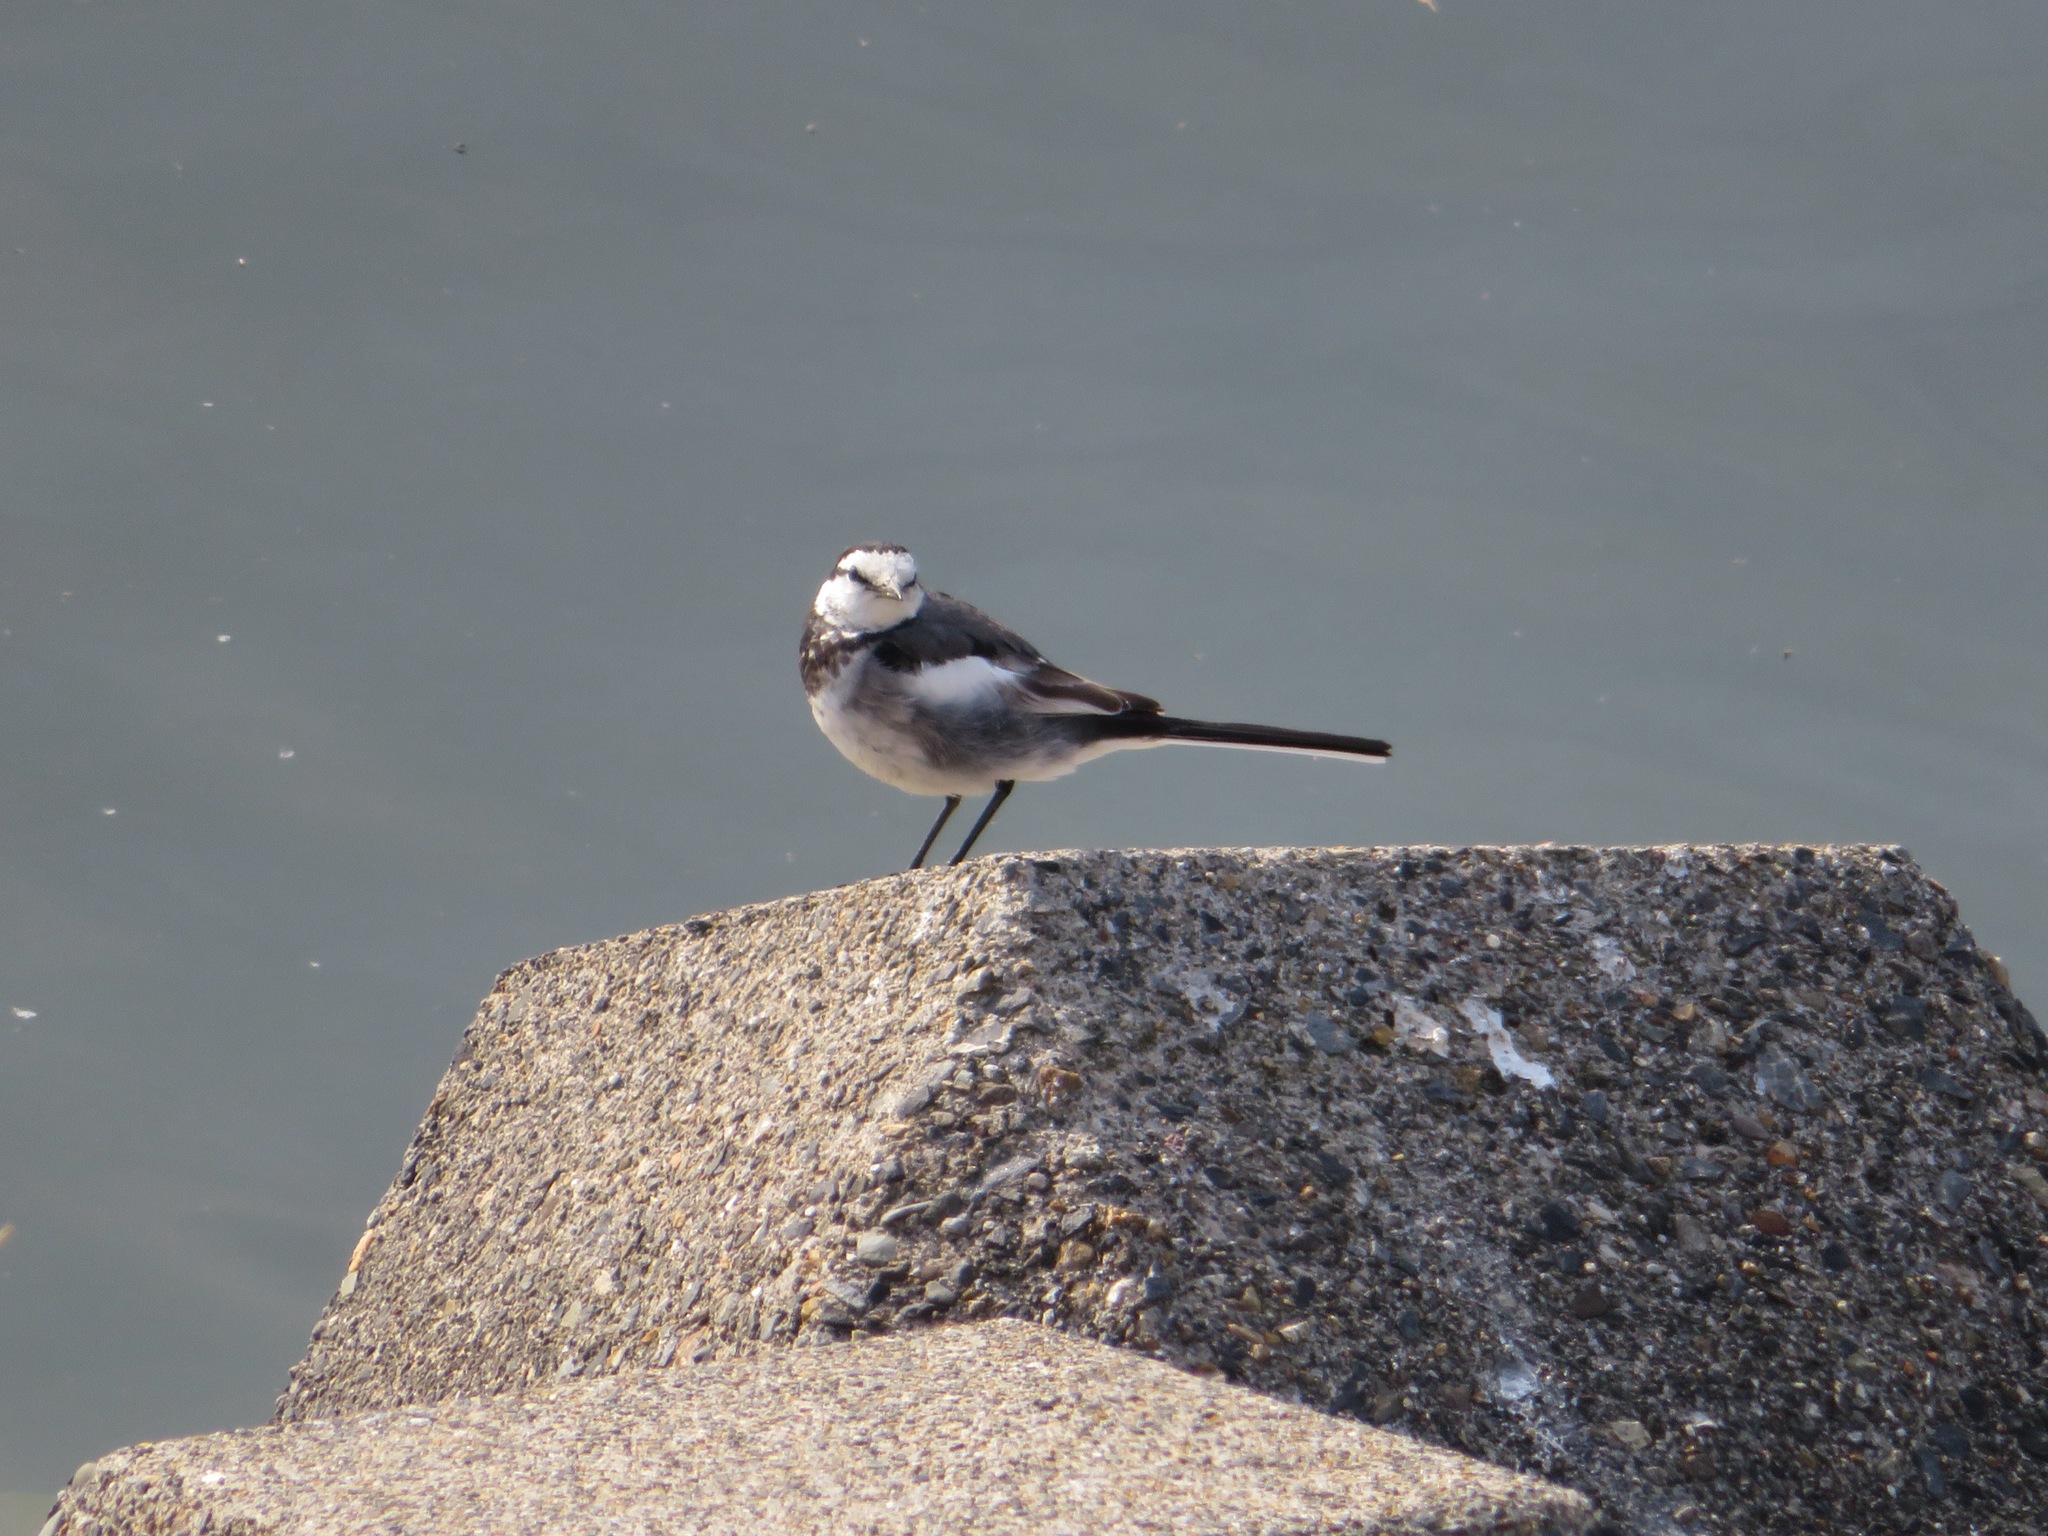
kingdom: Animalia
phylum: Chordata
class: Aves
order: Passeriformes
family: Motacillidae
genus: Motacilla
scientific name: Motacilla alba
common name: White wagtail
